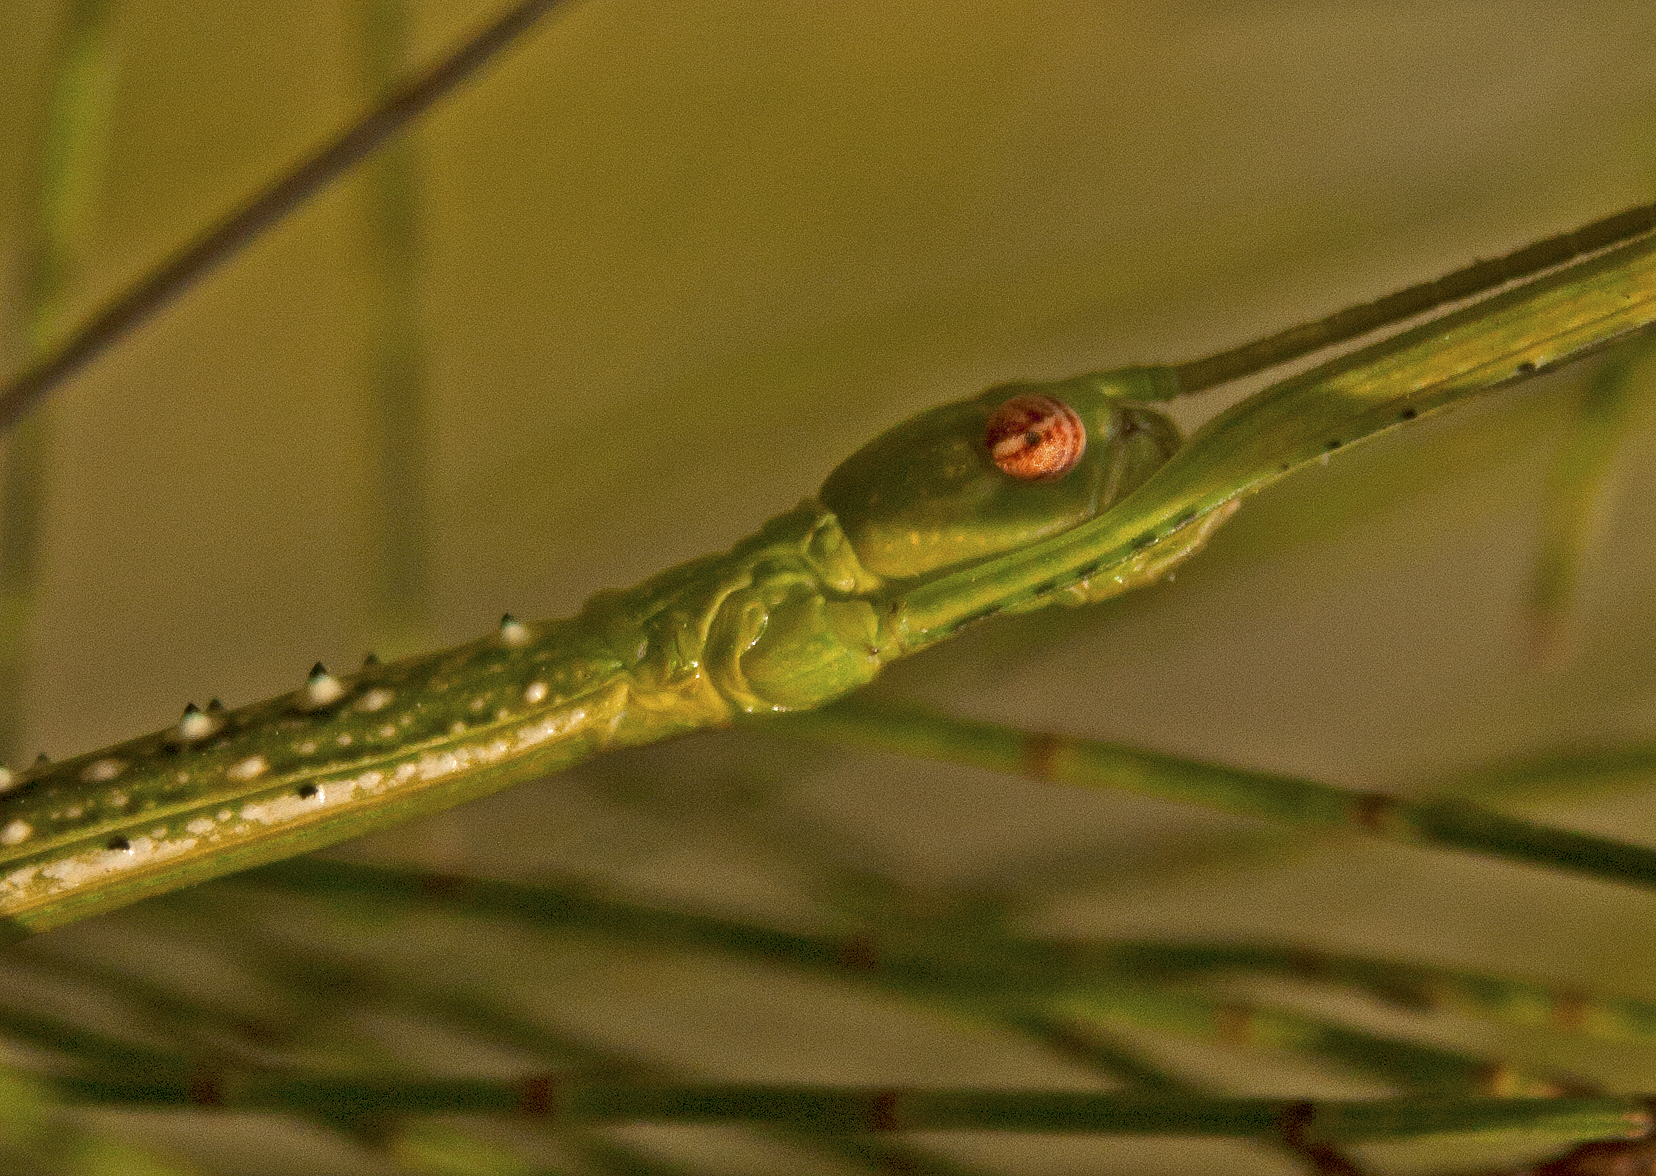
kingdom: Animalia
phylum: Arthropoda
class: Insecta
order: Phasmida
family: Phasmatidae
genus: Anchiale
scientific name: Anchiale austrotessulata
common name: Tessellated stick-insect
